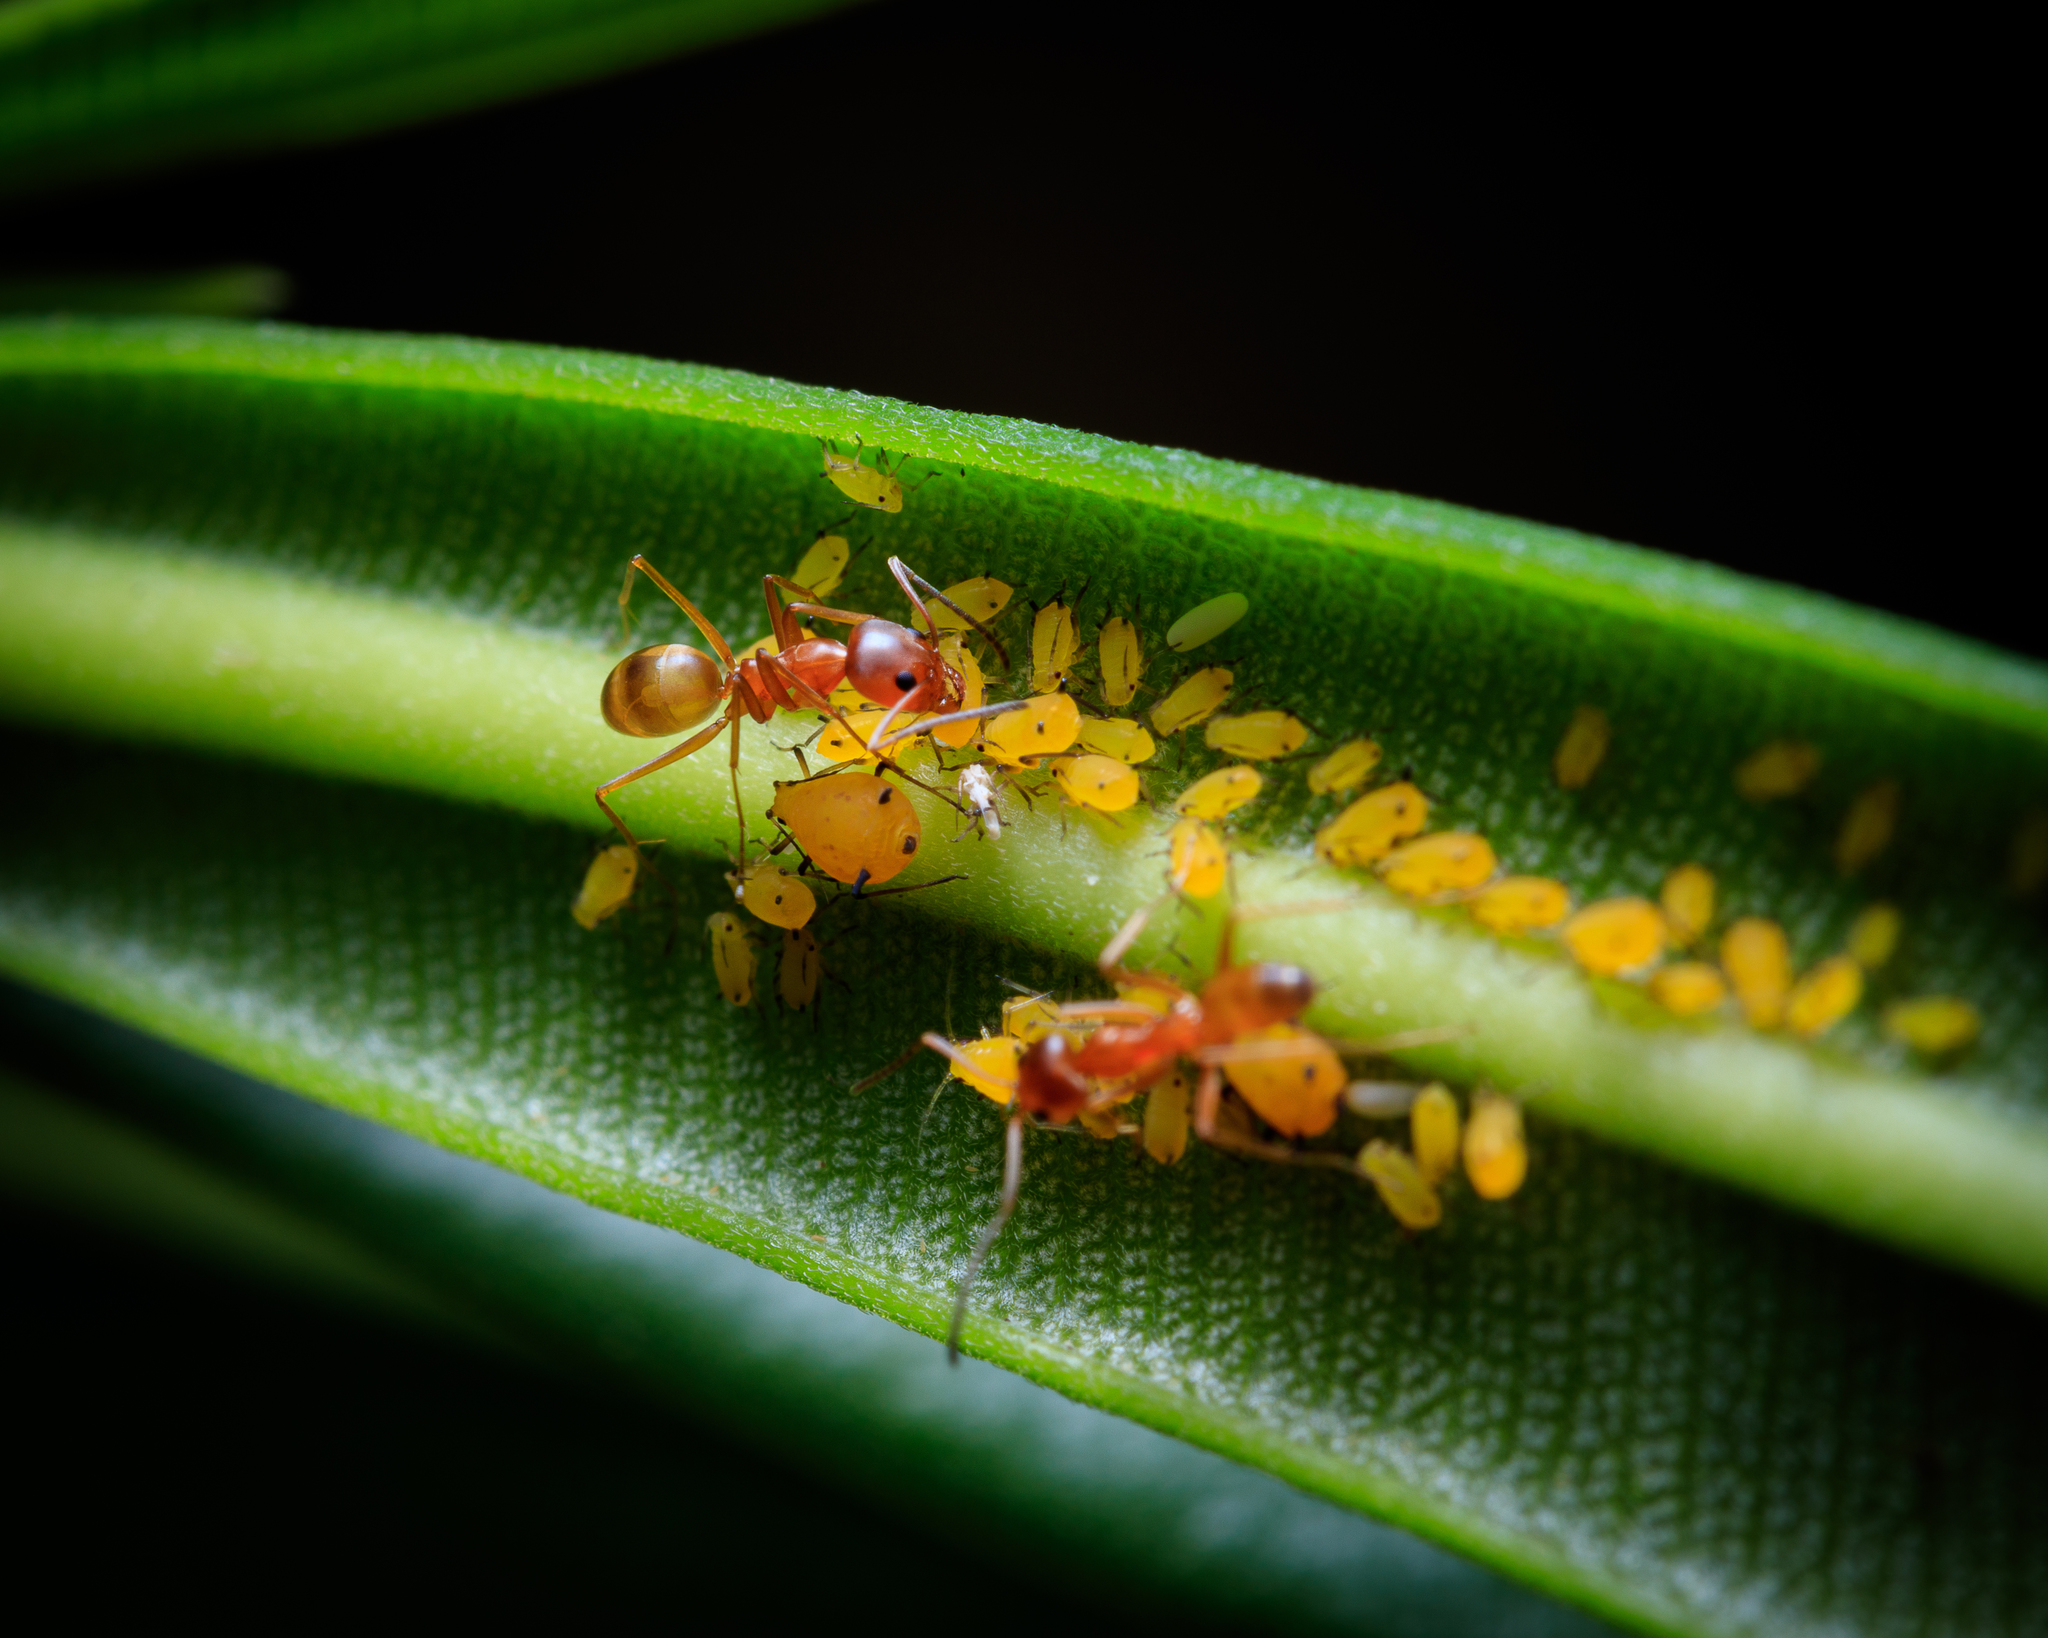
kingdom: Animalia
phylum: Arthropoda
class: Insecta
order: Hymenoptera
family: Formicidae
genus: Dorymyrmex
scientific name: Dorymyrmex bureni
